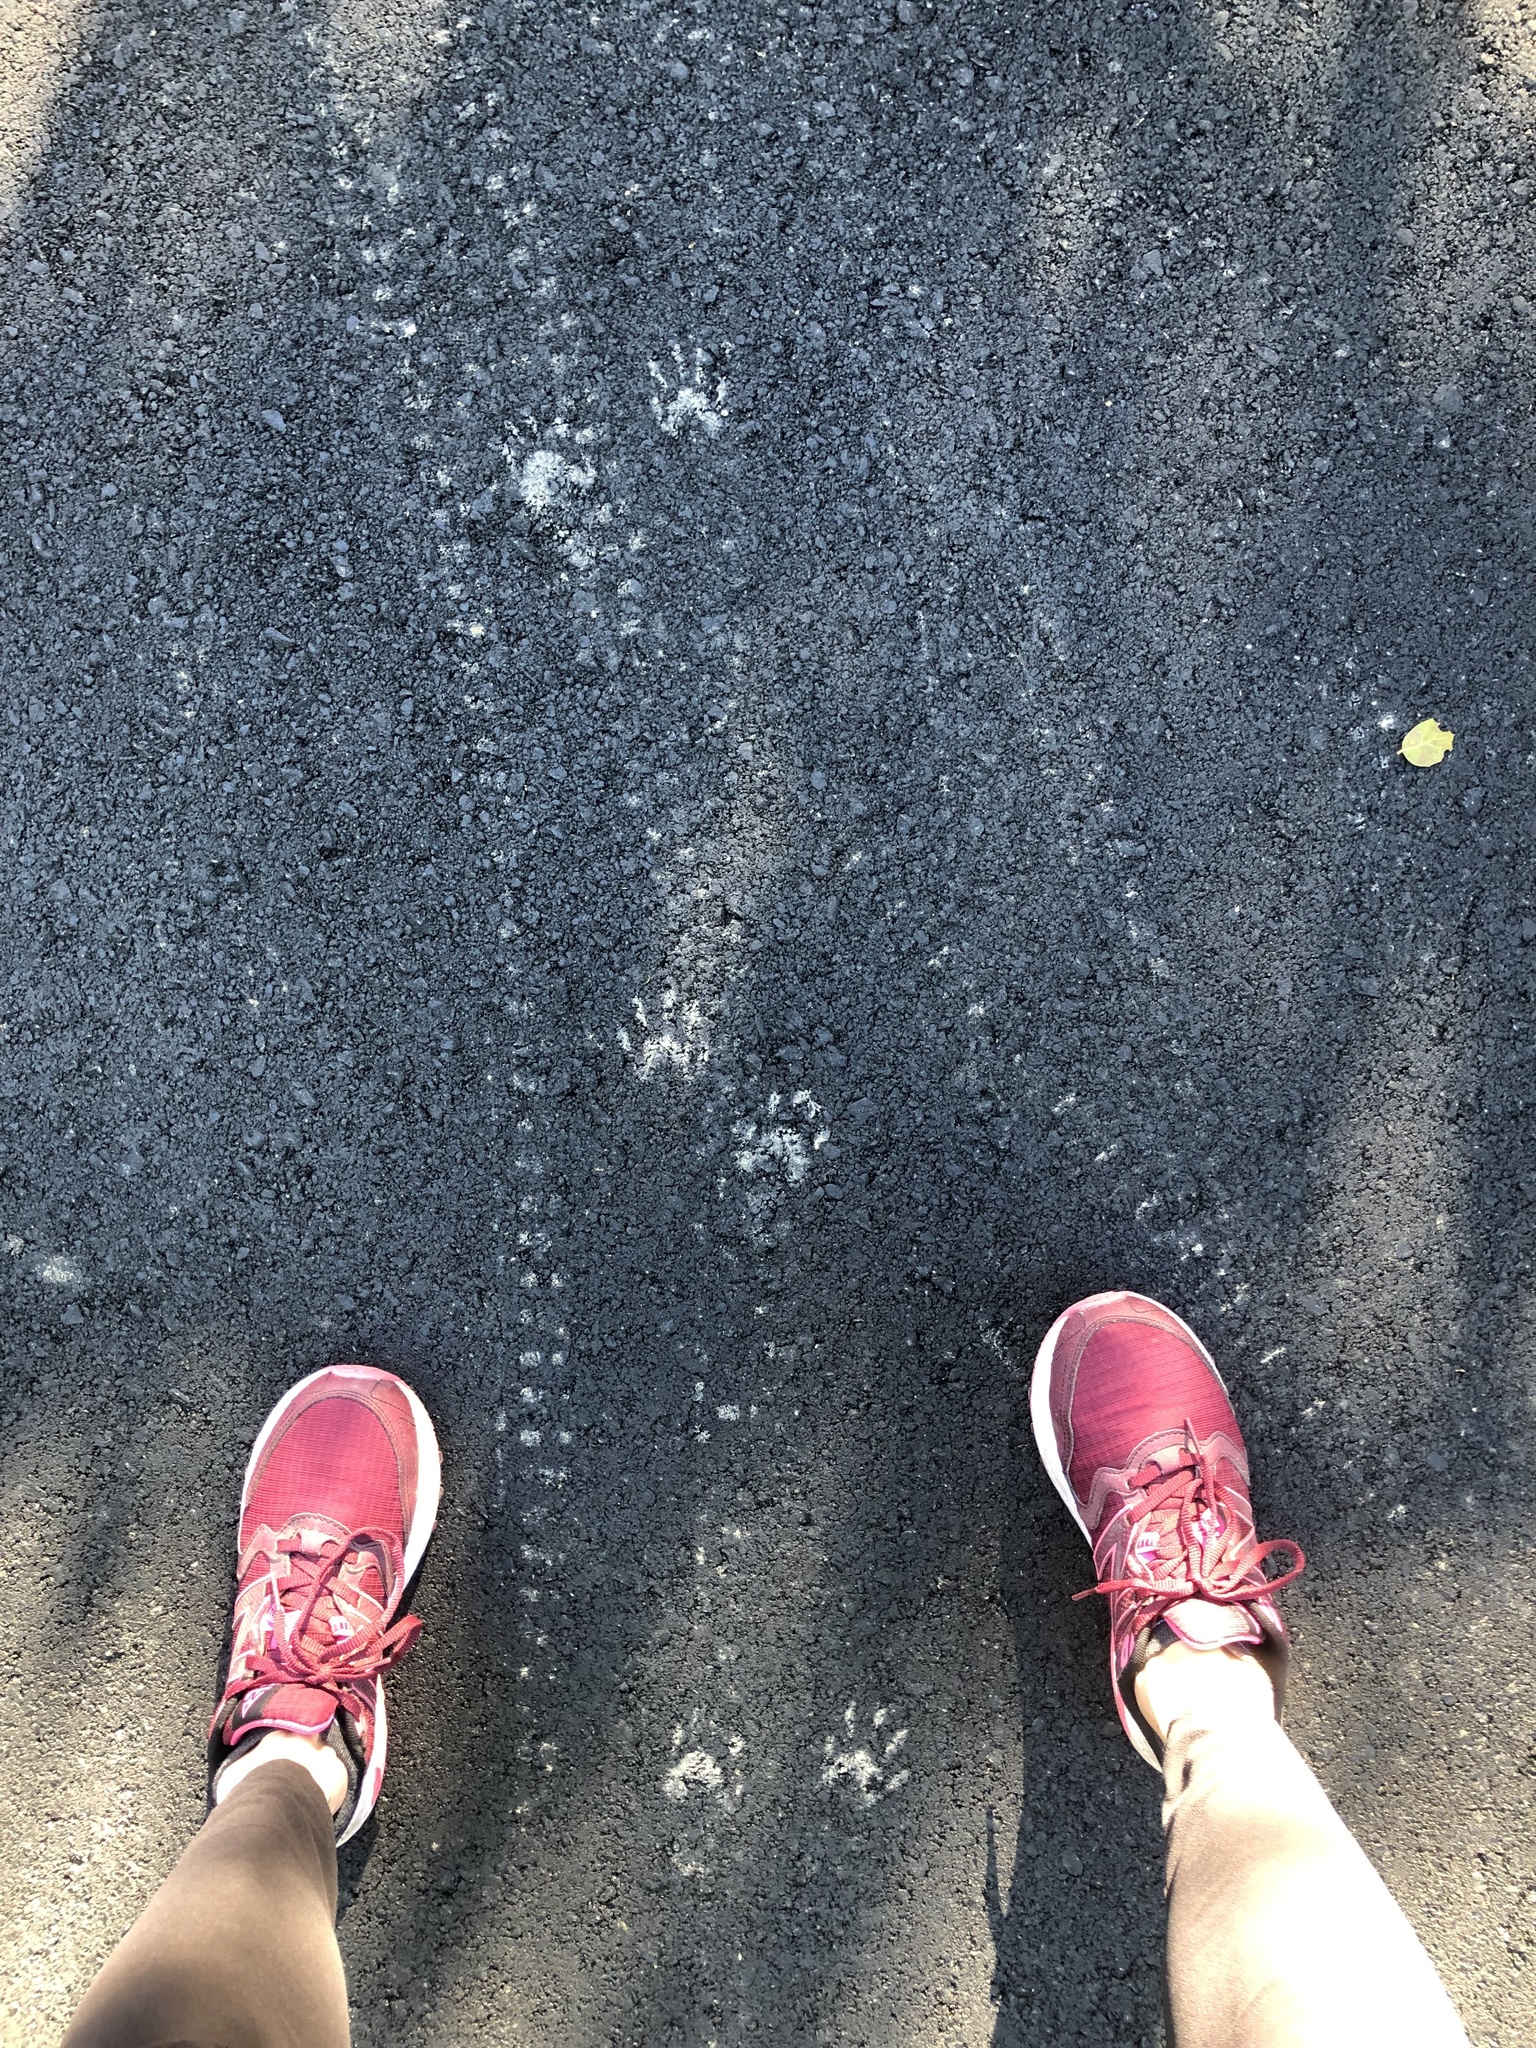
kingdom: Animalia
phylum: Chordata
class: Mammalia
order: Carnivora
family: Procyonidae
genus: Procyon
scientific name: Procyon lotor
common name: Raccoon
